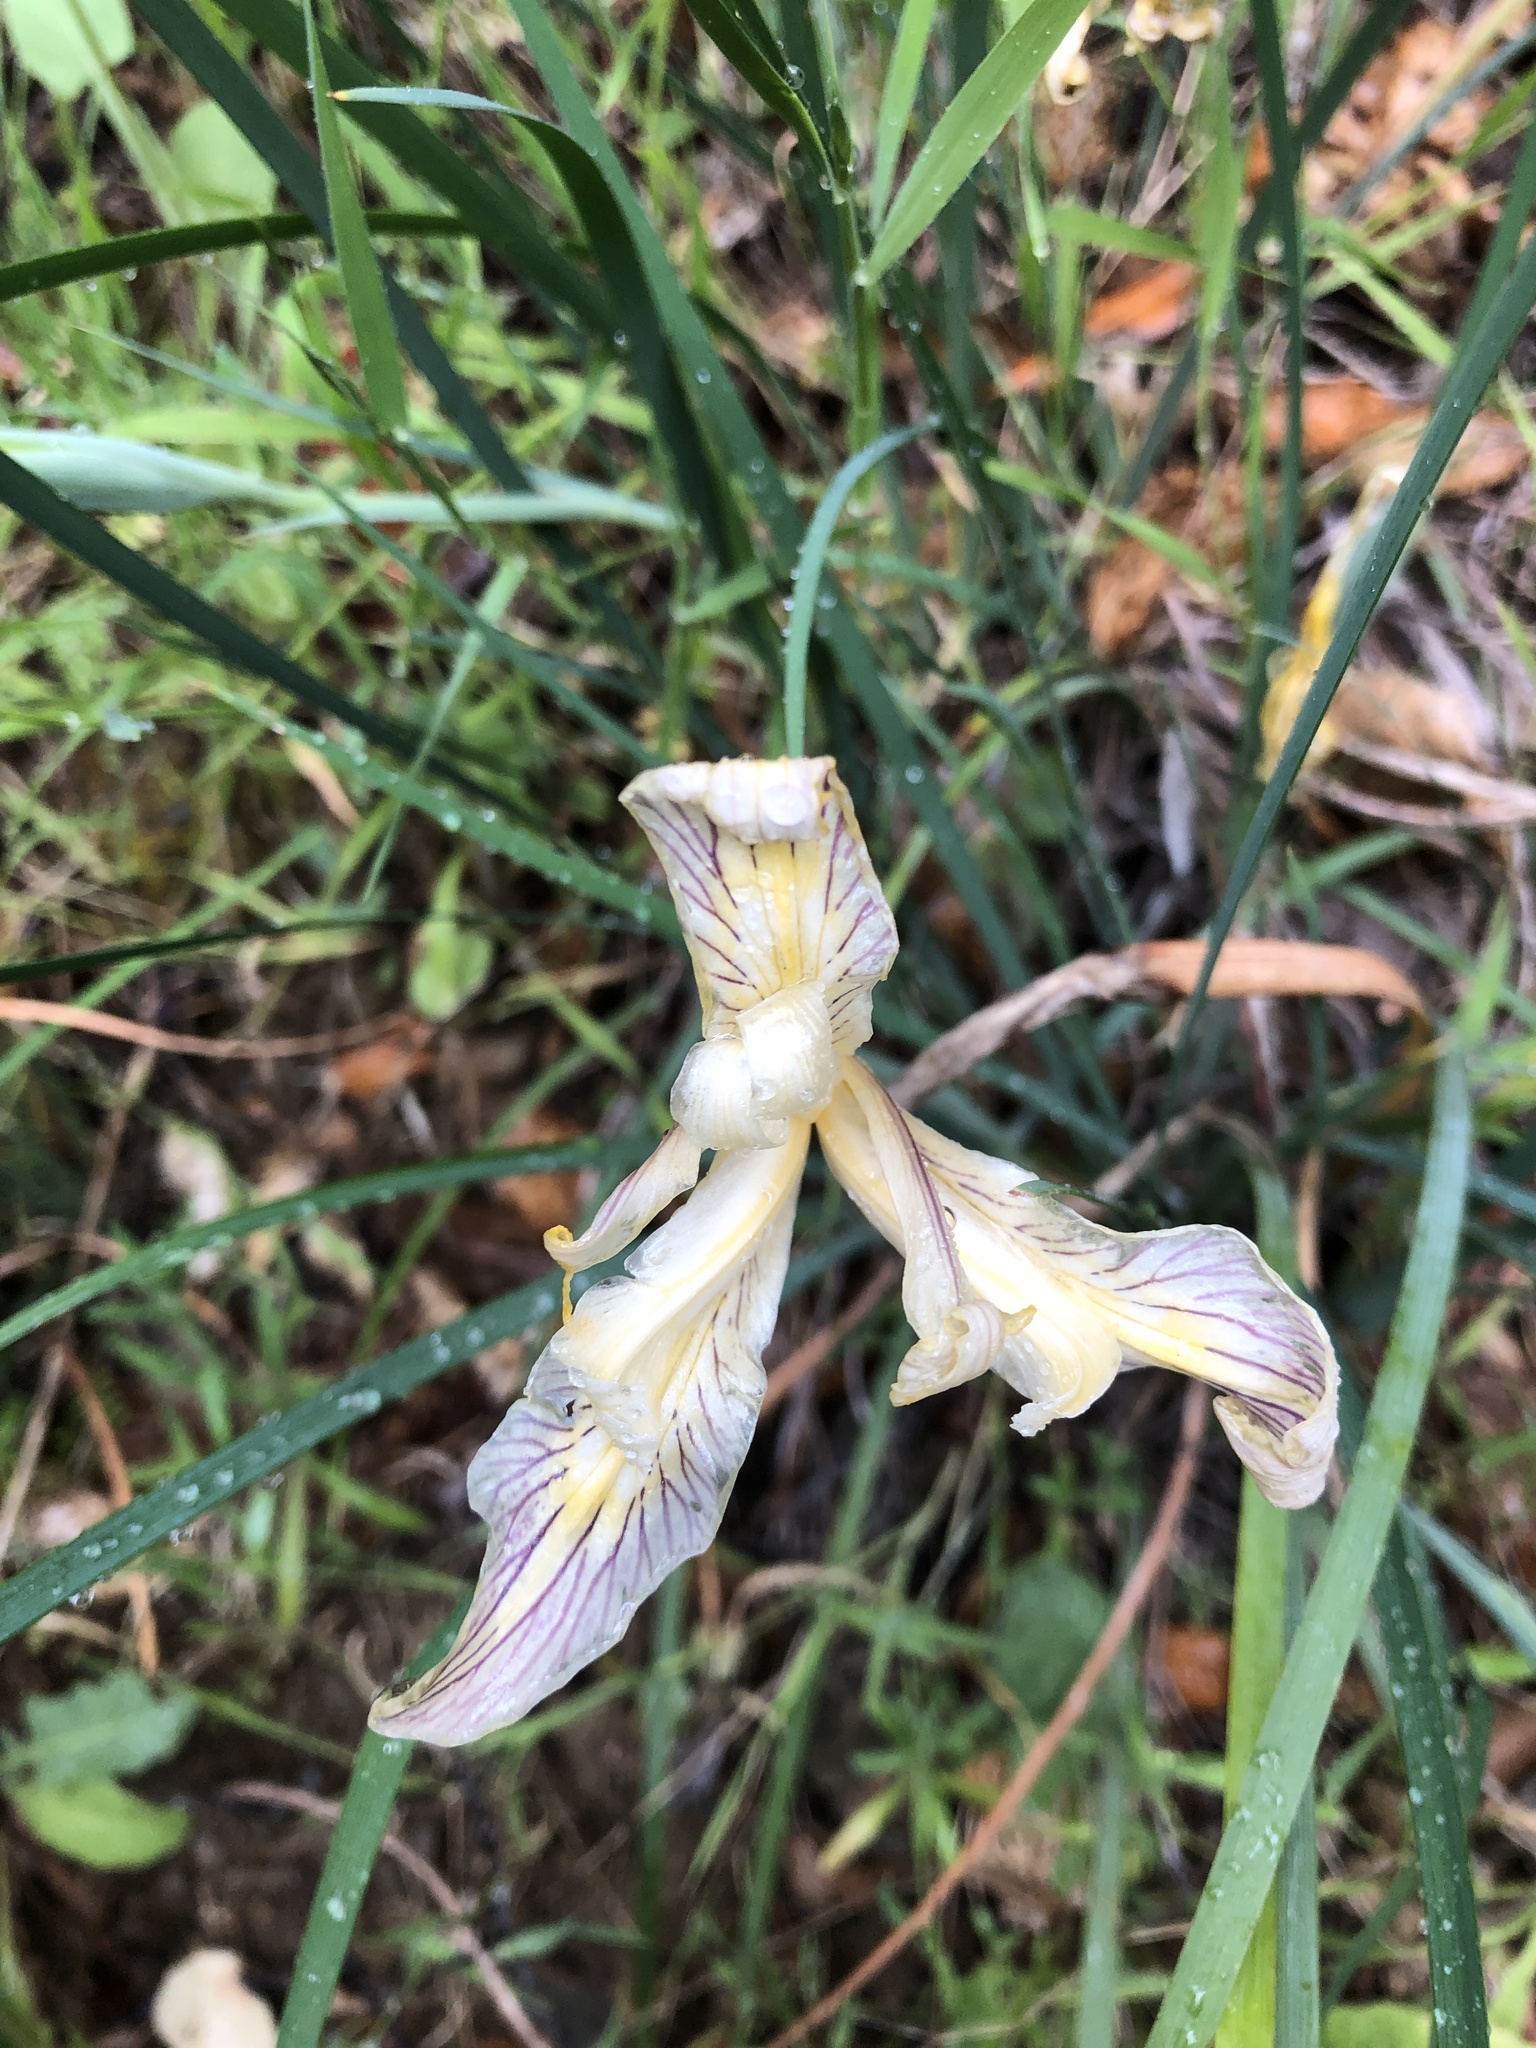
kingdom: Plantae
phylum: Tracheophyta
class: Liliopsida
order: Asparagales
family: Iridaceae
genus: Iris
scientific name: Iris fernaldii
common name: Fernald's iris
